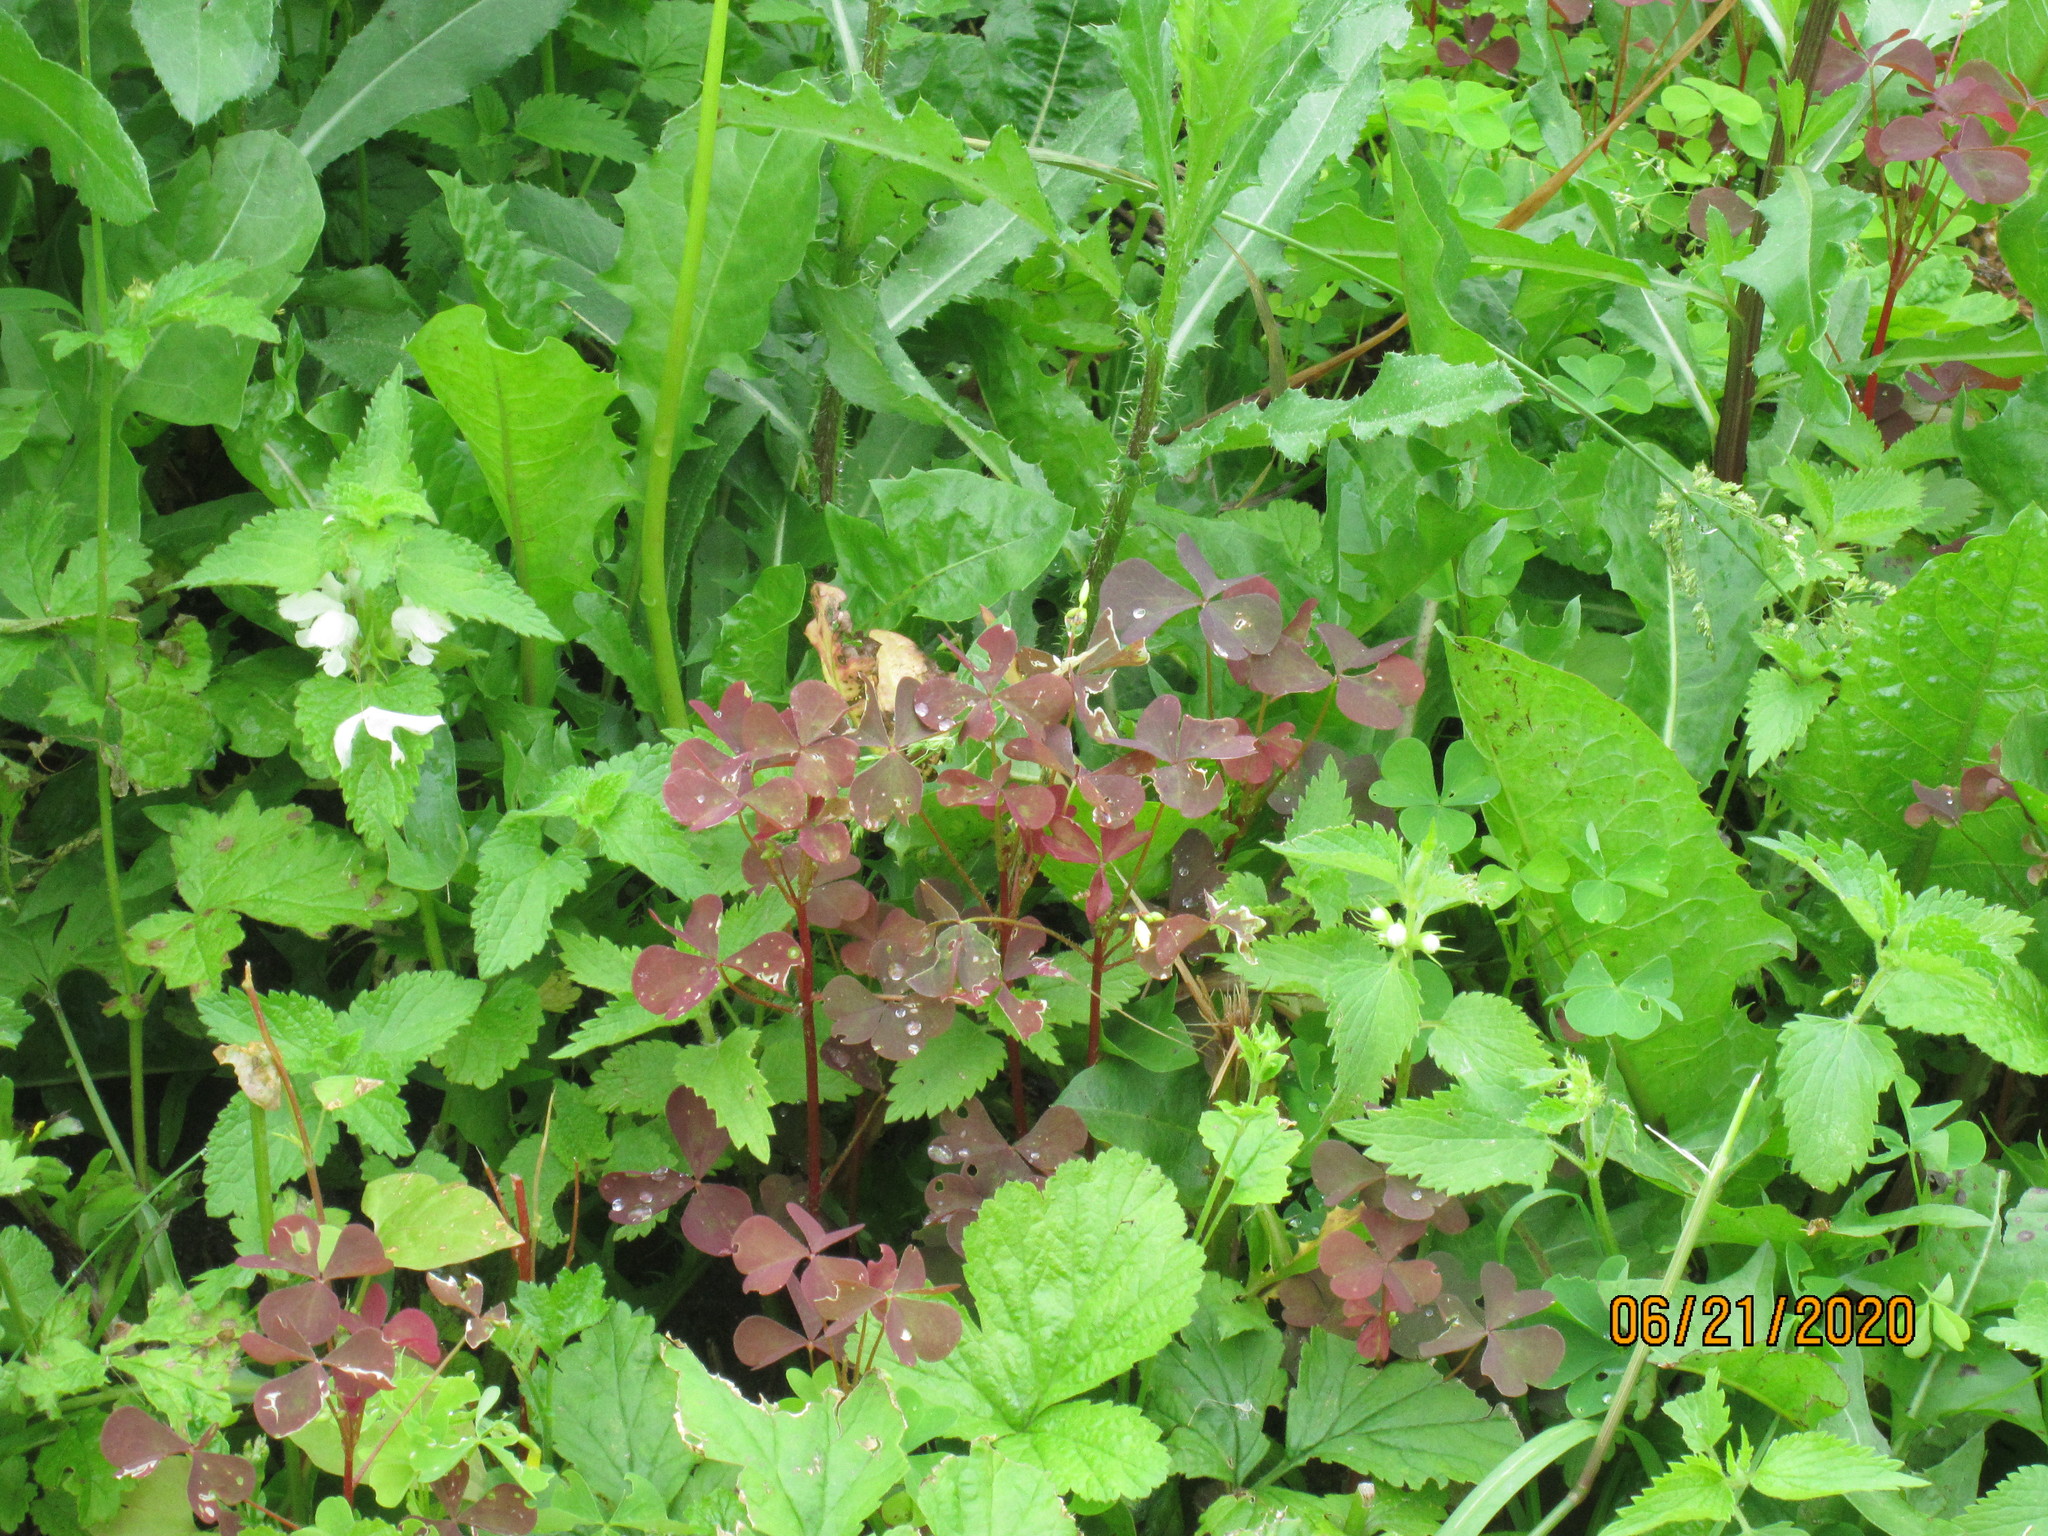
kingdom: Plantae
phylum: Tracheophyta
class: Magnoliopsida
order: Oxalidales
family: Oxalidaceae
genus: Oxalis
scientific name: Oxalis stricta
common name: Upright yellow-sorrel
